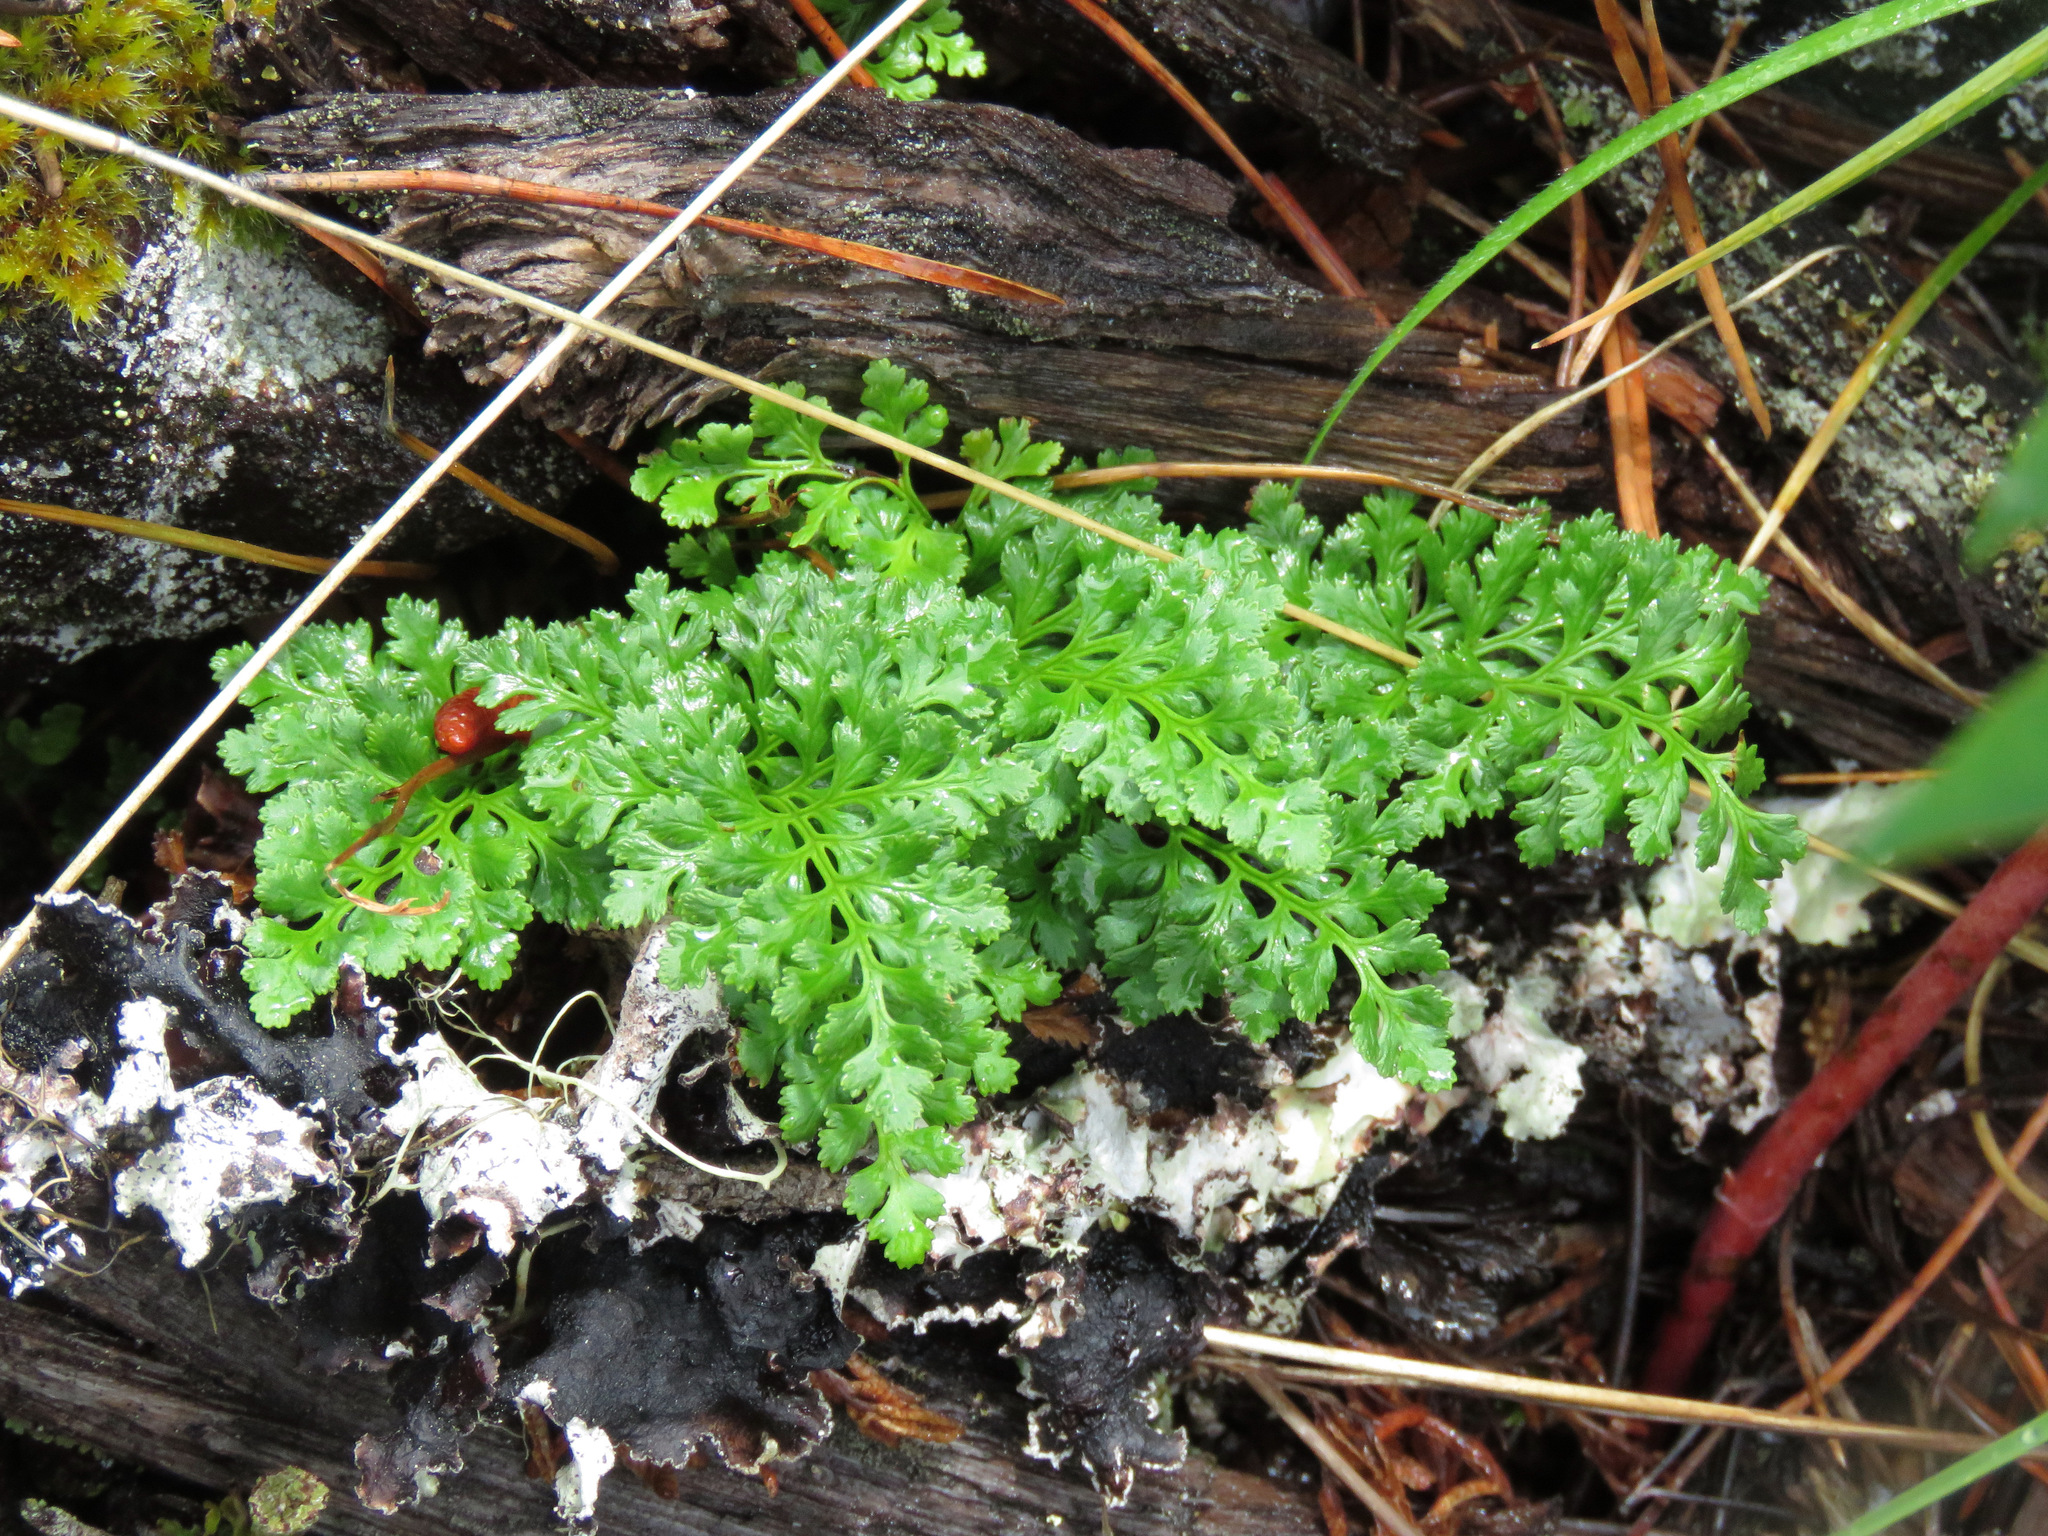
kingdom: Plantae
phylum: Tracheophyta
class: Polypodiopsida
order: Polypodiales
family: Pteridaceae
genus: Cryptogramma
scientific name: Cryptogramma acrostichoides
